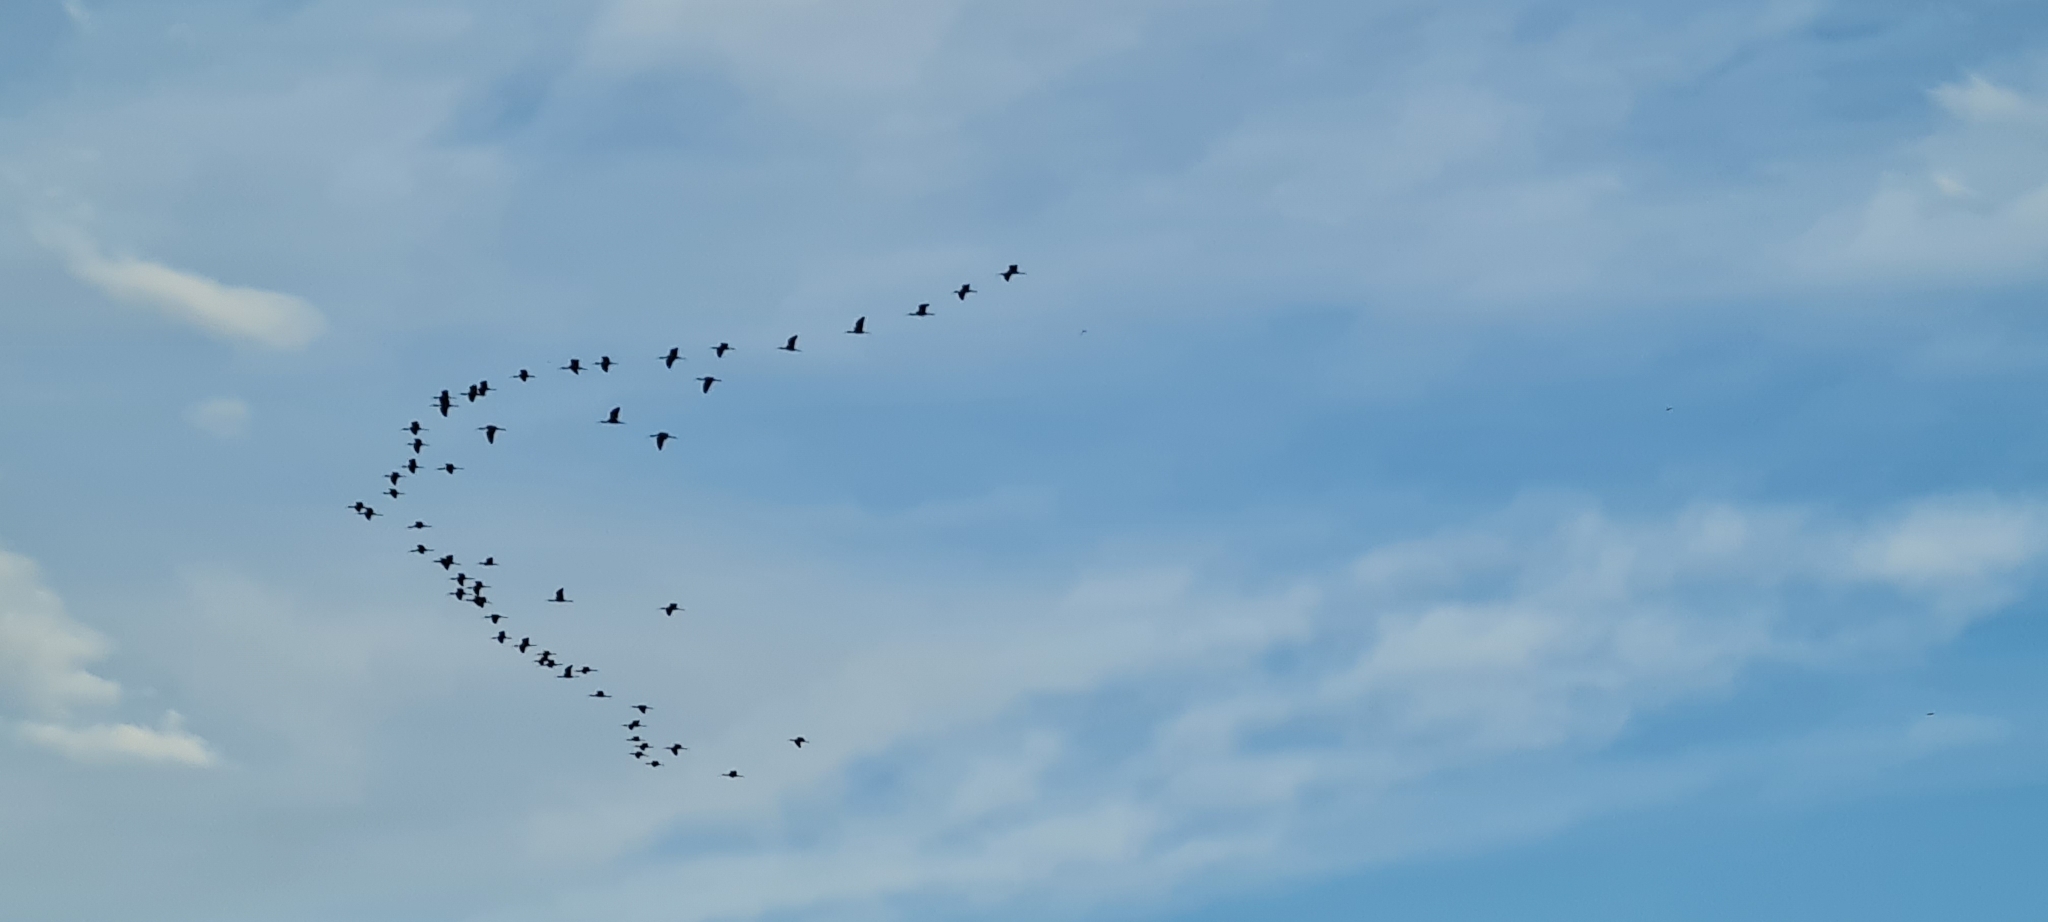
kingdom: Animalia
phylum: Chordata
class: Aves
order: Pelecaniformes
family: Threskiornithidae
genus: Plegadis
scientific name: Plegadis falcinellus
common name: Glossy ibis
